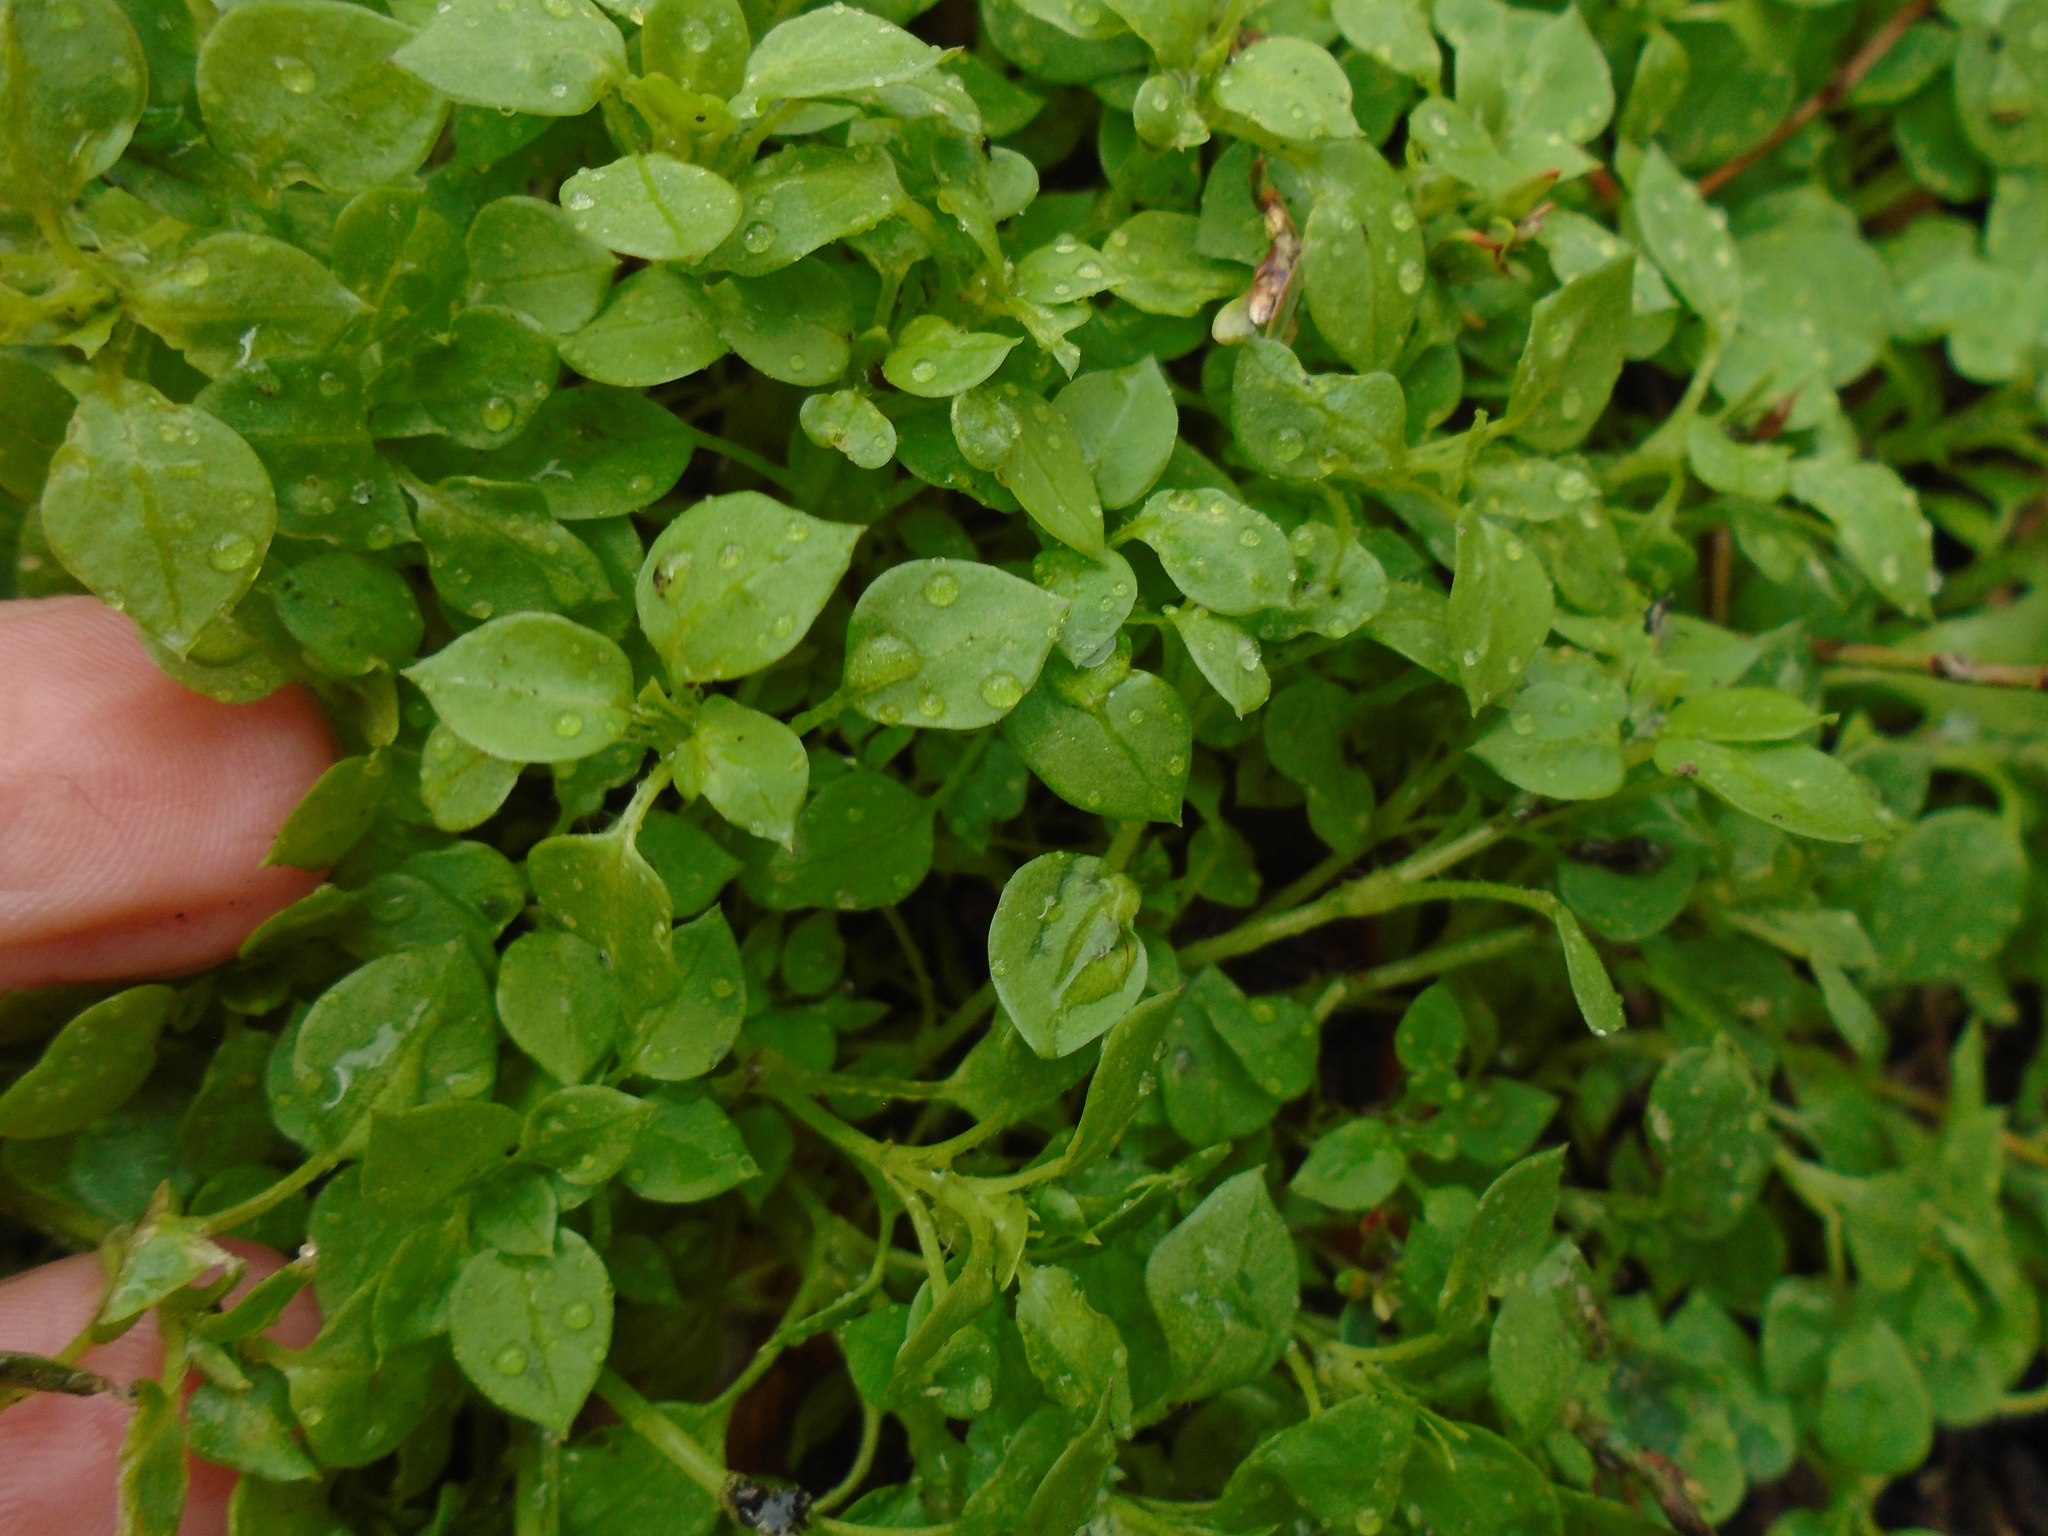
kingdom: Plantae
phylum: Tracheophyta
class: Magnoliopsida
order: Caryophyllales
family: Caryophyllaceae
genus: Stellaria
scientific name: Stellaria media
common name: Common chickweed
